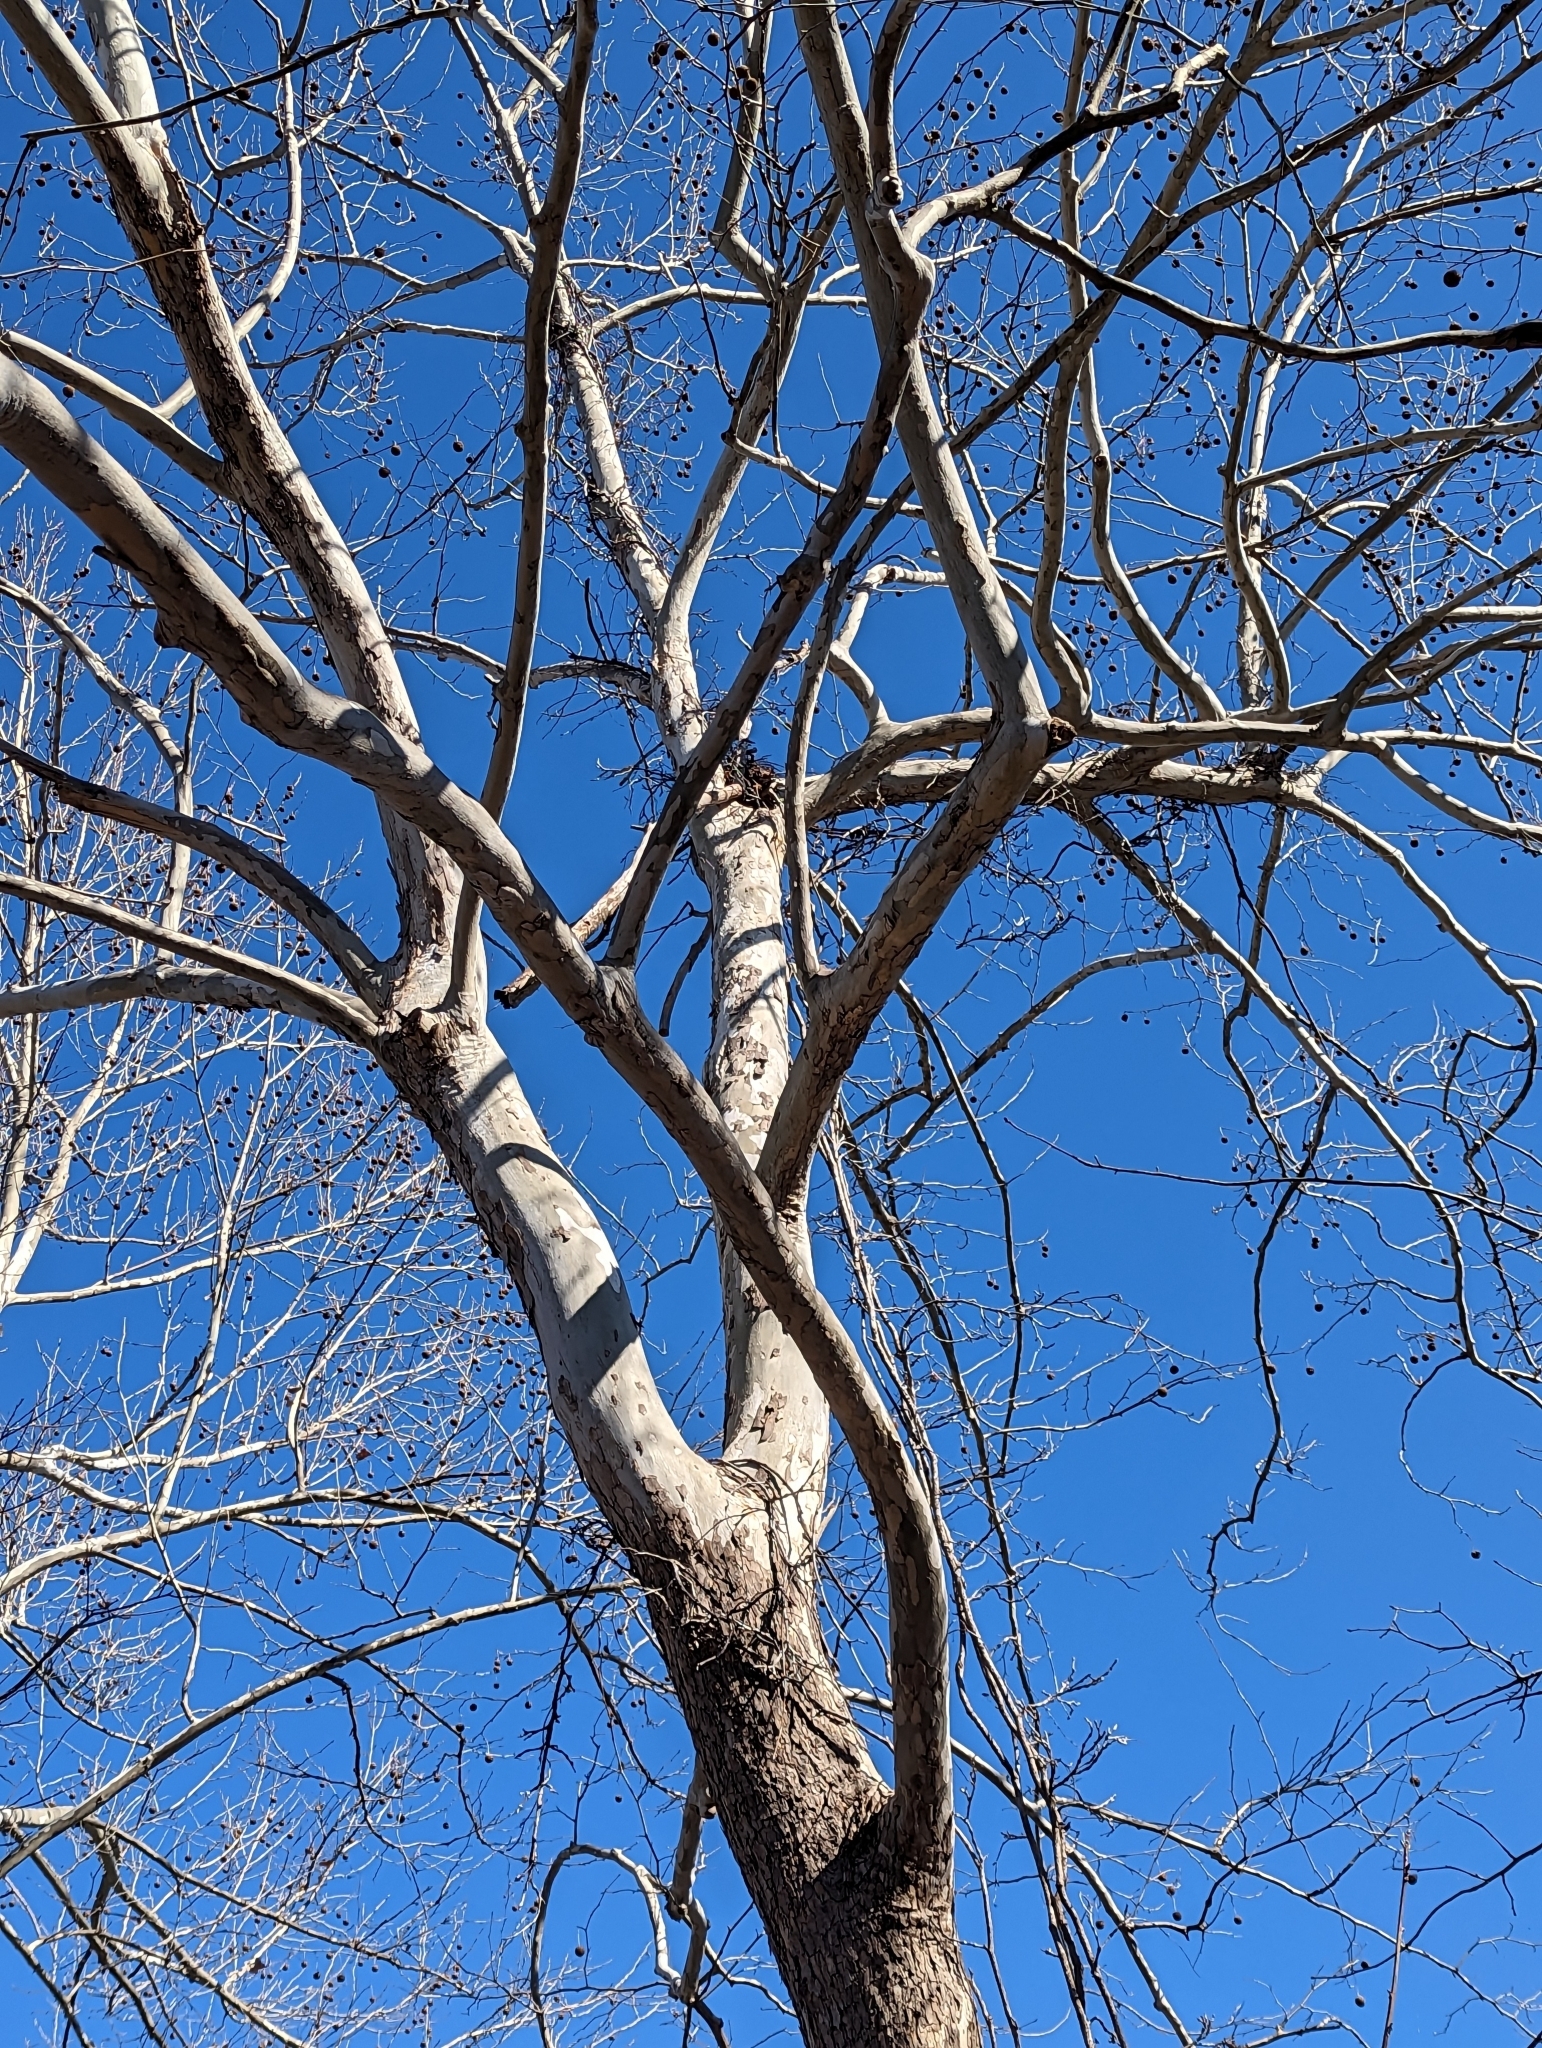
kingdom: Plantae
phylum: Tracheophyta
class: Magnoliopsida
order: Proteales
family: Platanaceae
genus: Platanus
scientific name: Platanus occidentalis
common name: American sycamore
